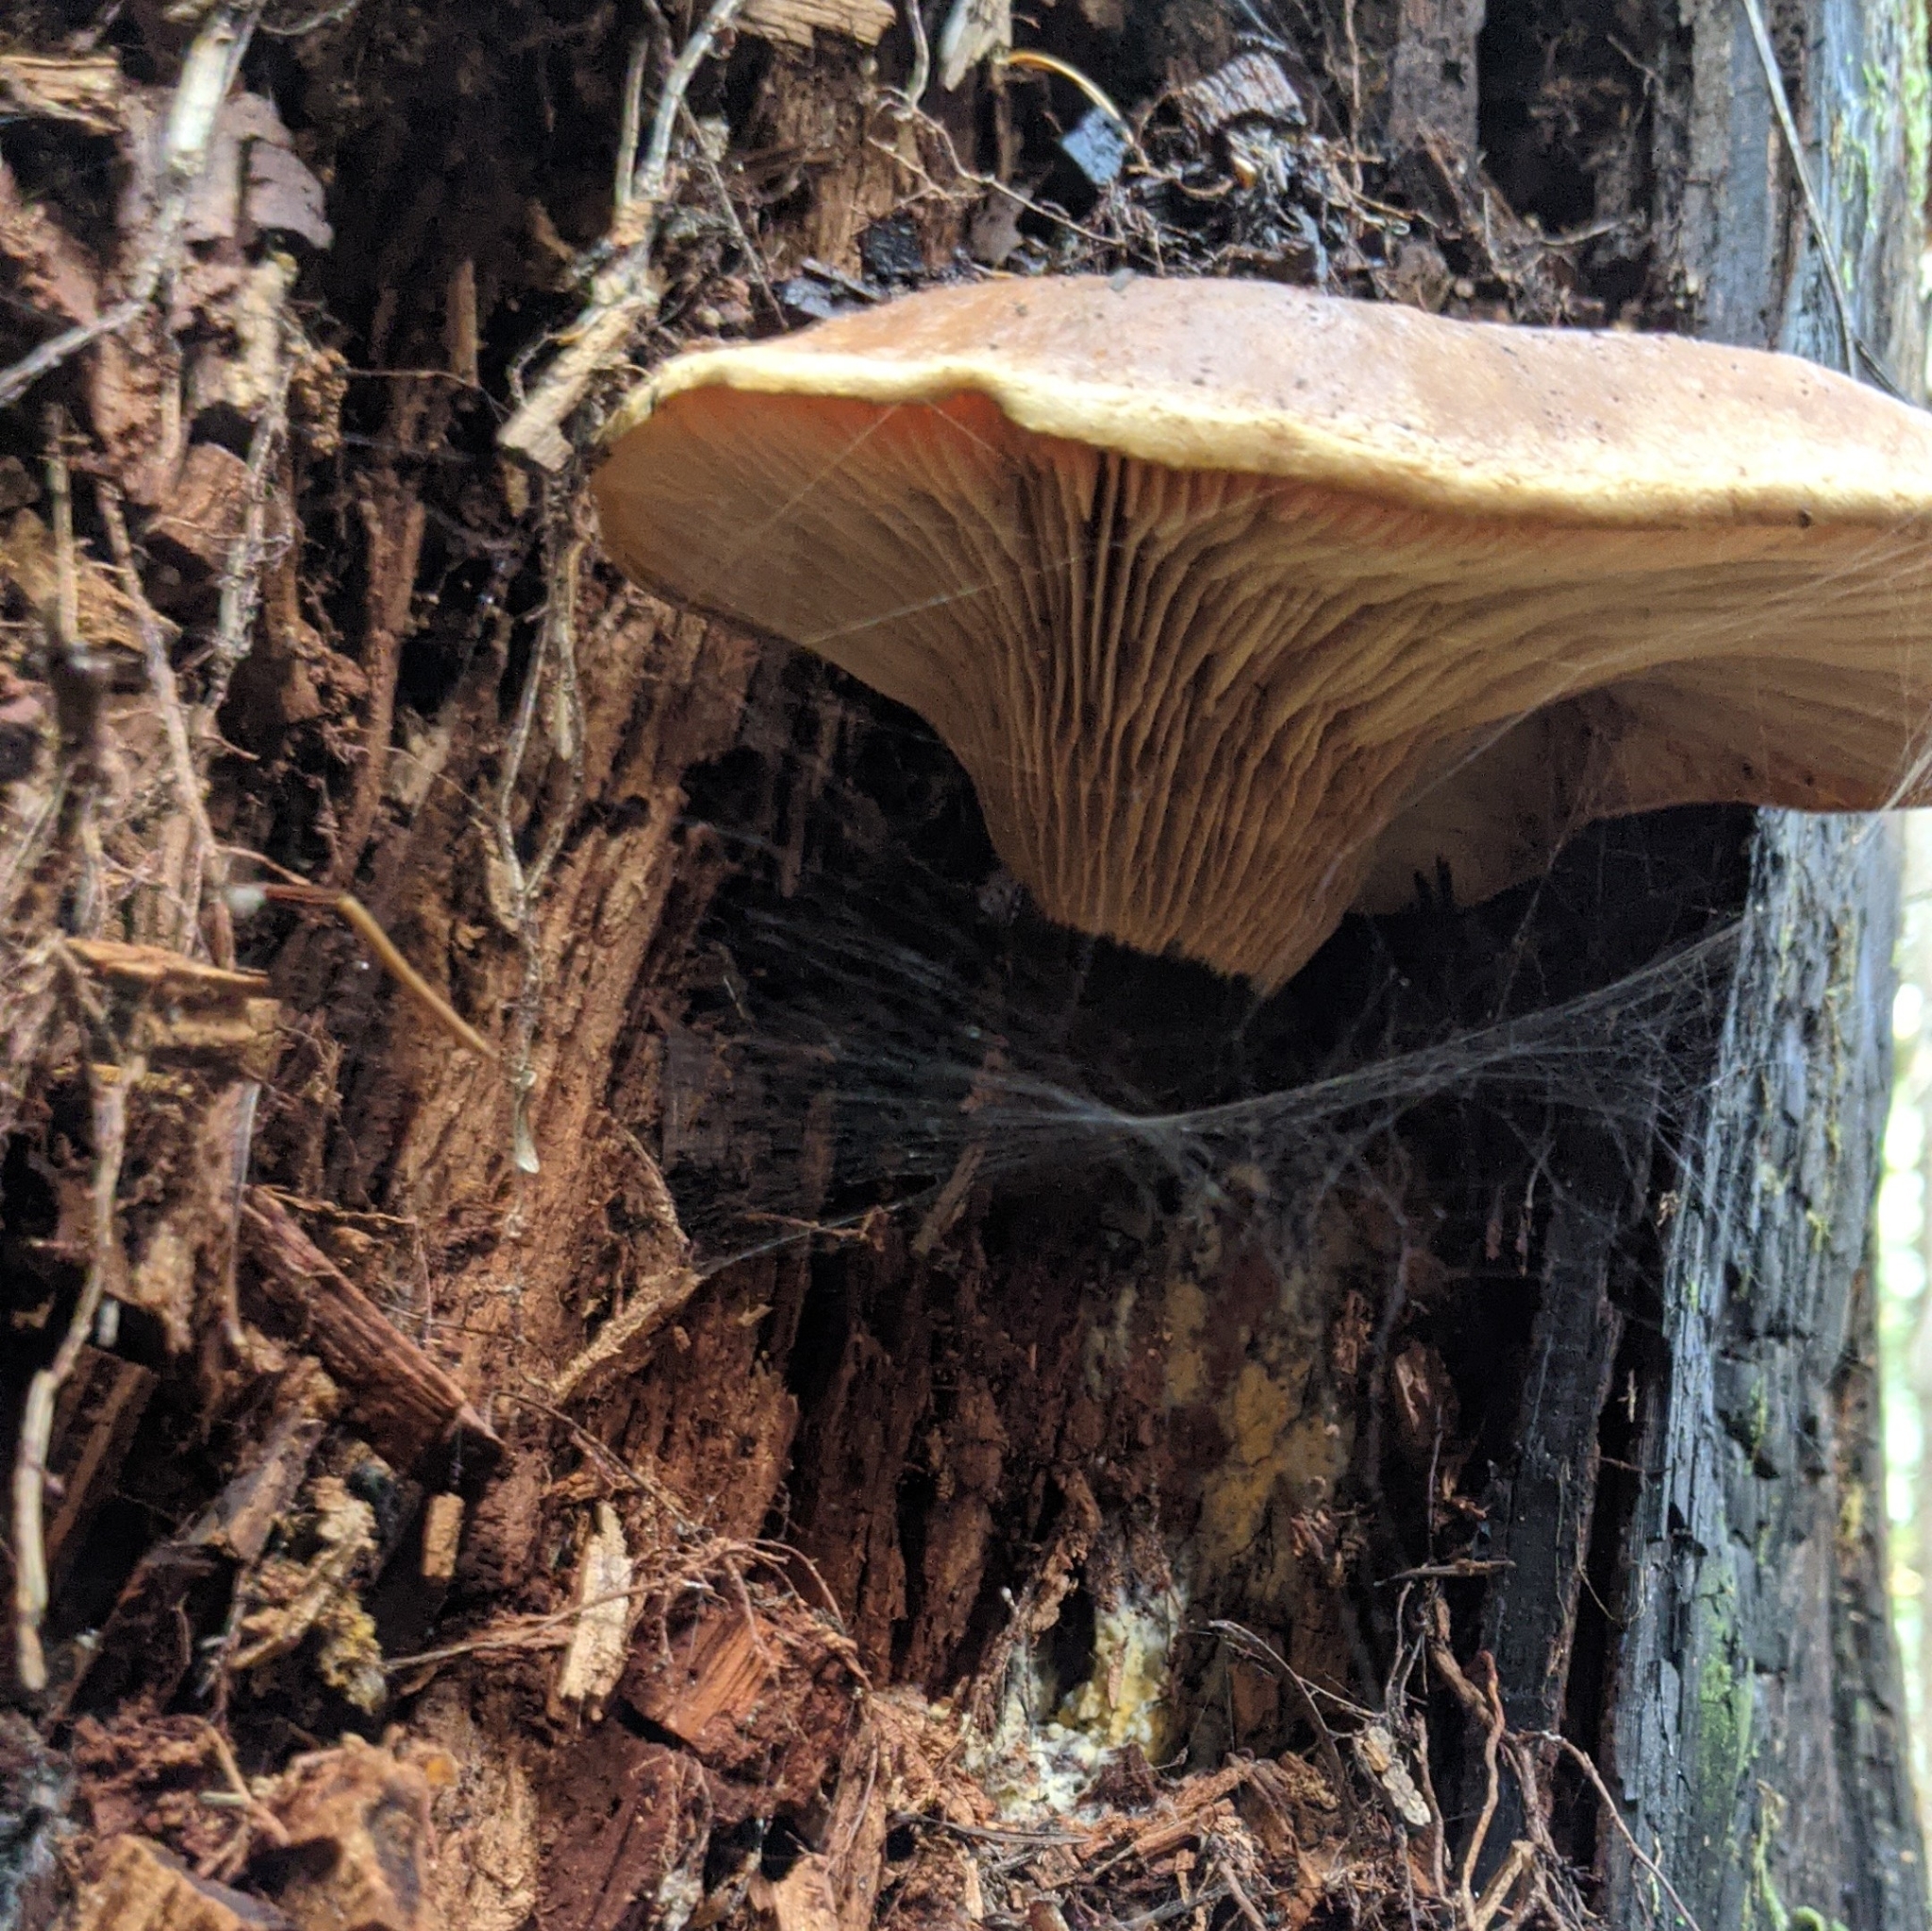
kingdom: Fungi
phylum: Basidiomycota
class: Agaricomycetes
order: Boletales
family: Tapinellaceae
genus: Tapinella
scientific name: Tapinella atrotomentosa
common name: Velvet rollrim
